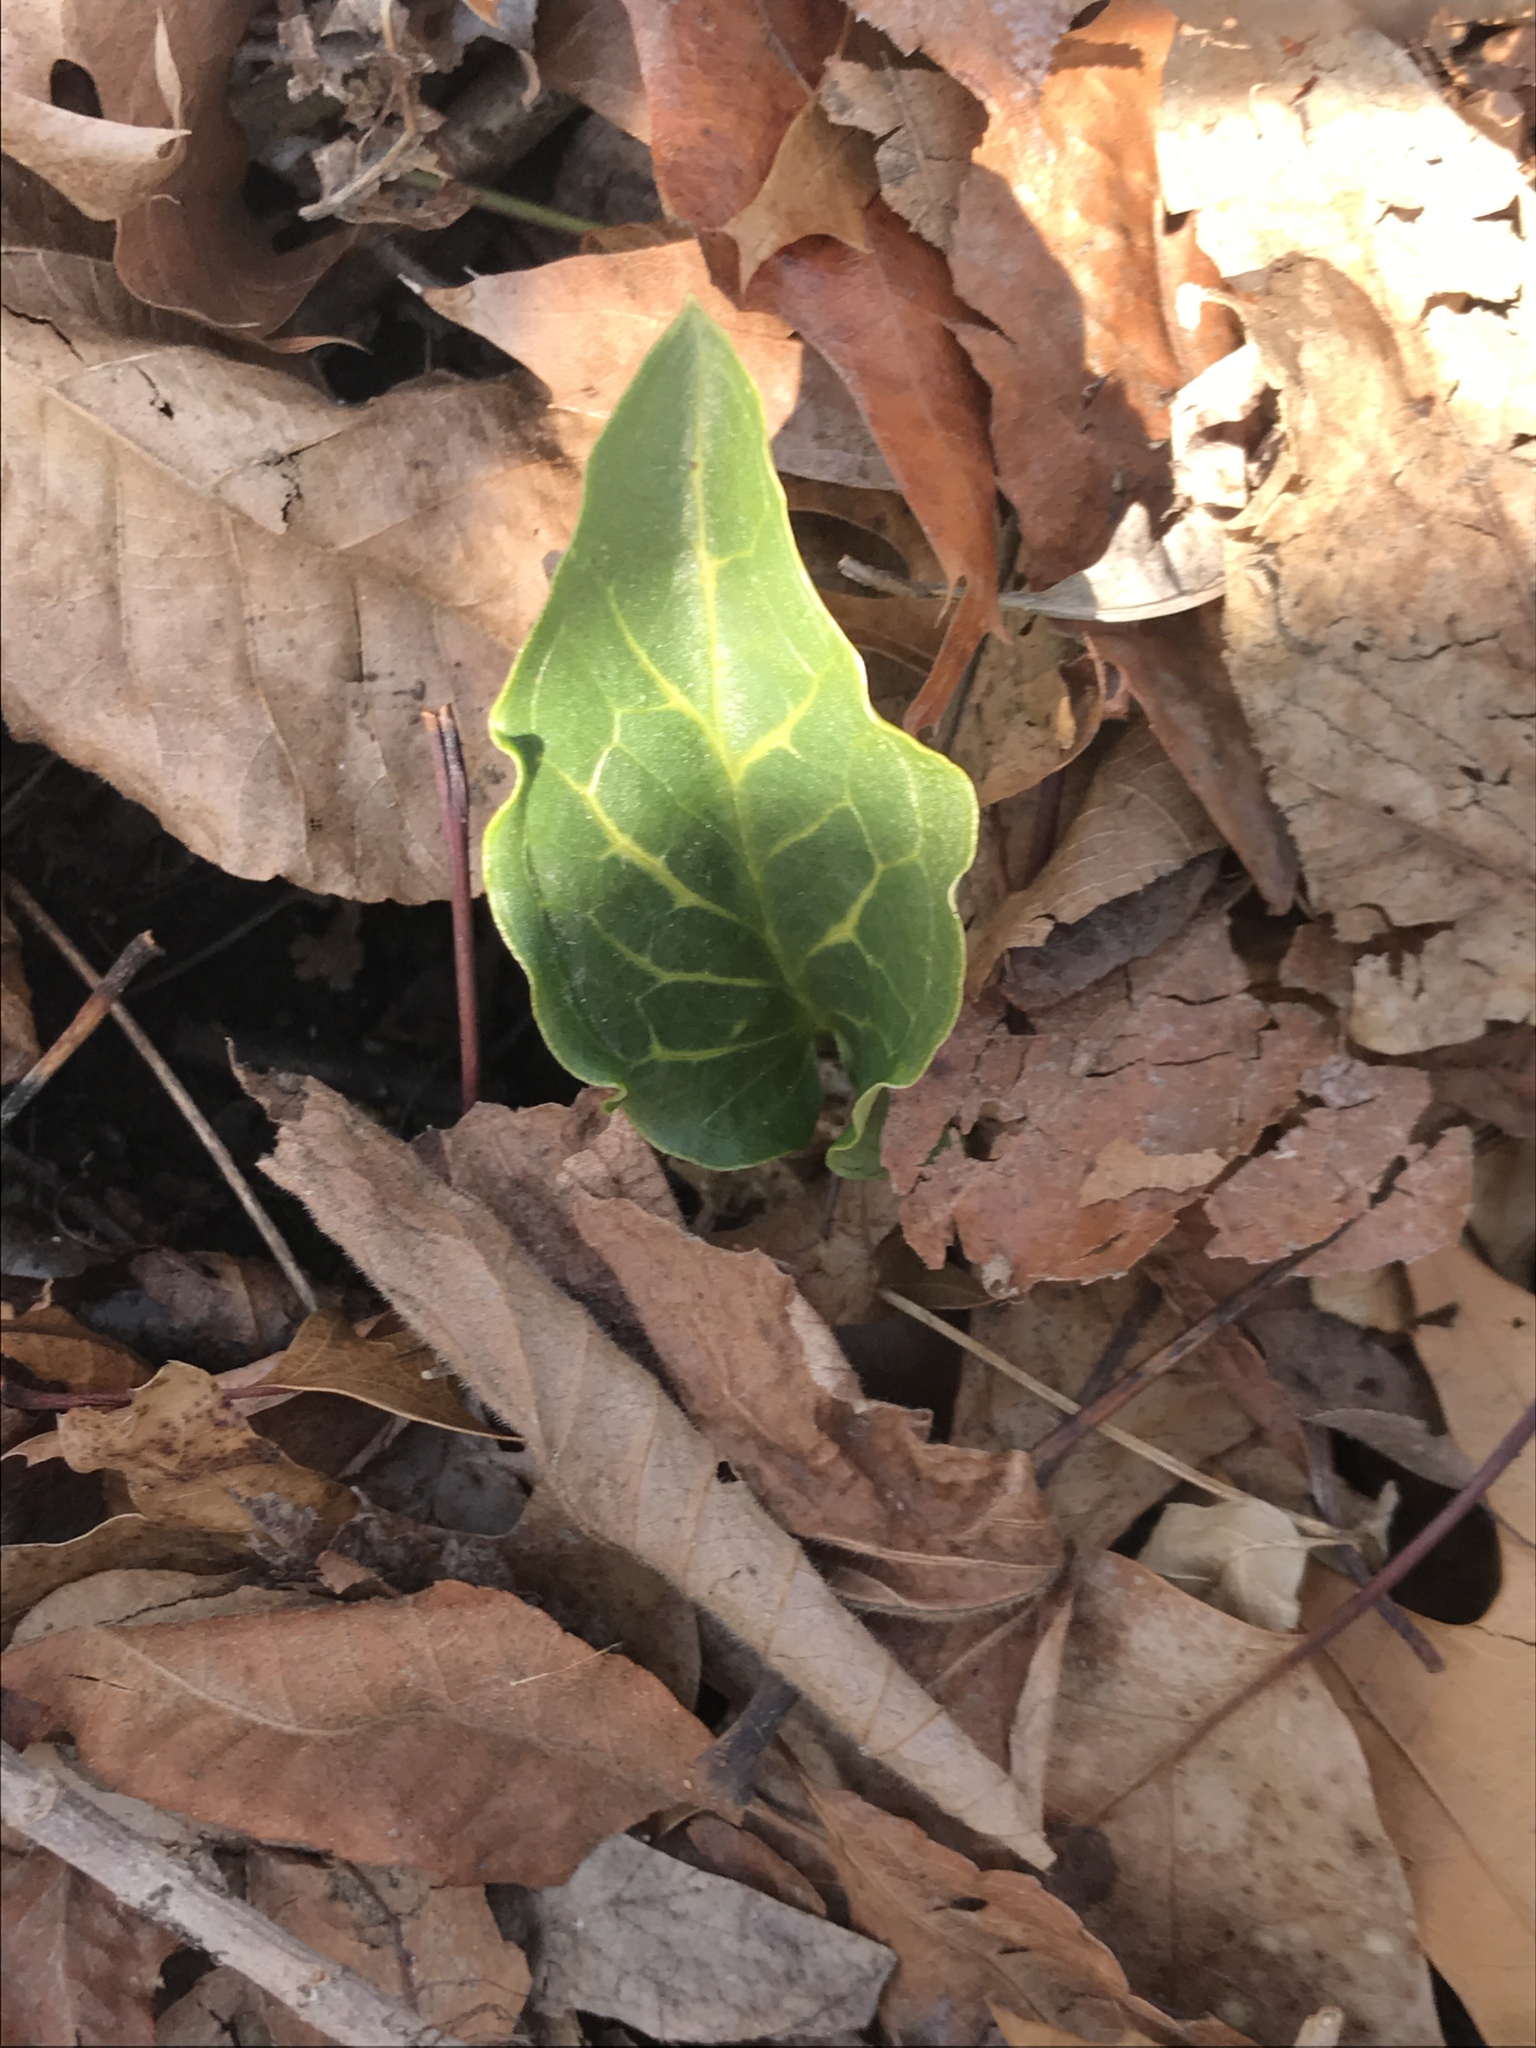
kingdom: Plantae
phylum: Tracheophyta
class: Liliopsida
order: Alismatales
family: Araceae
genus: Arum
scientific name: Arum italicum
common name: Italian lords-and-ladies
